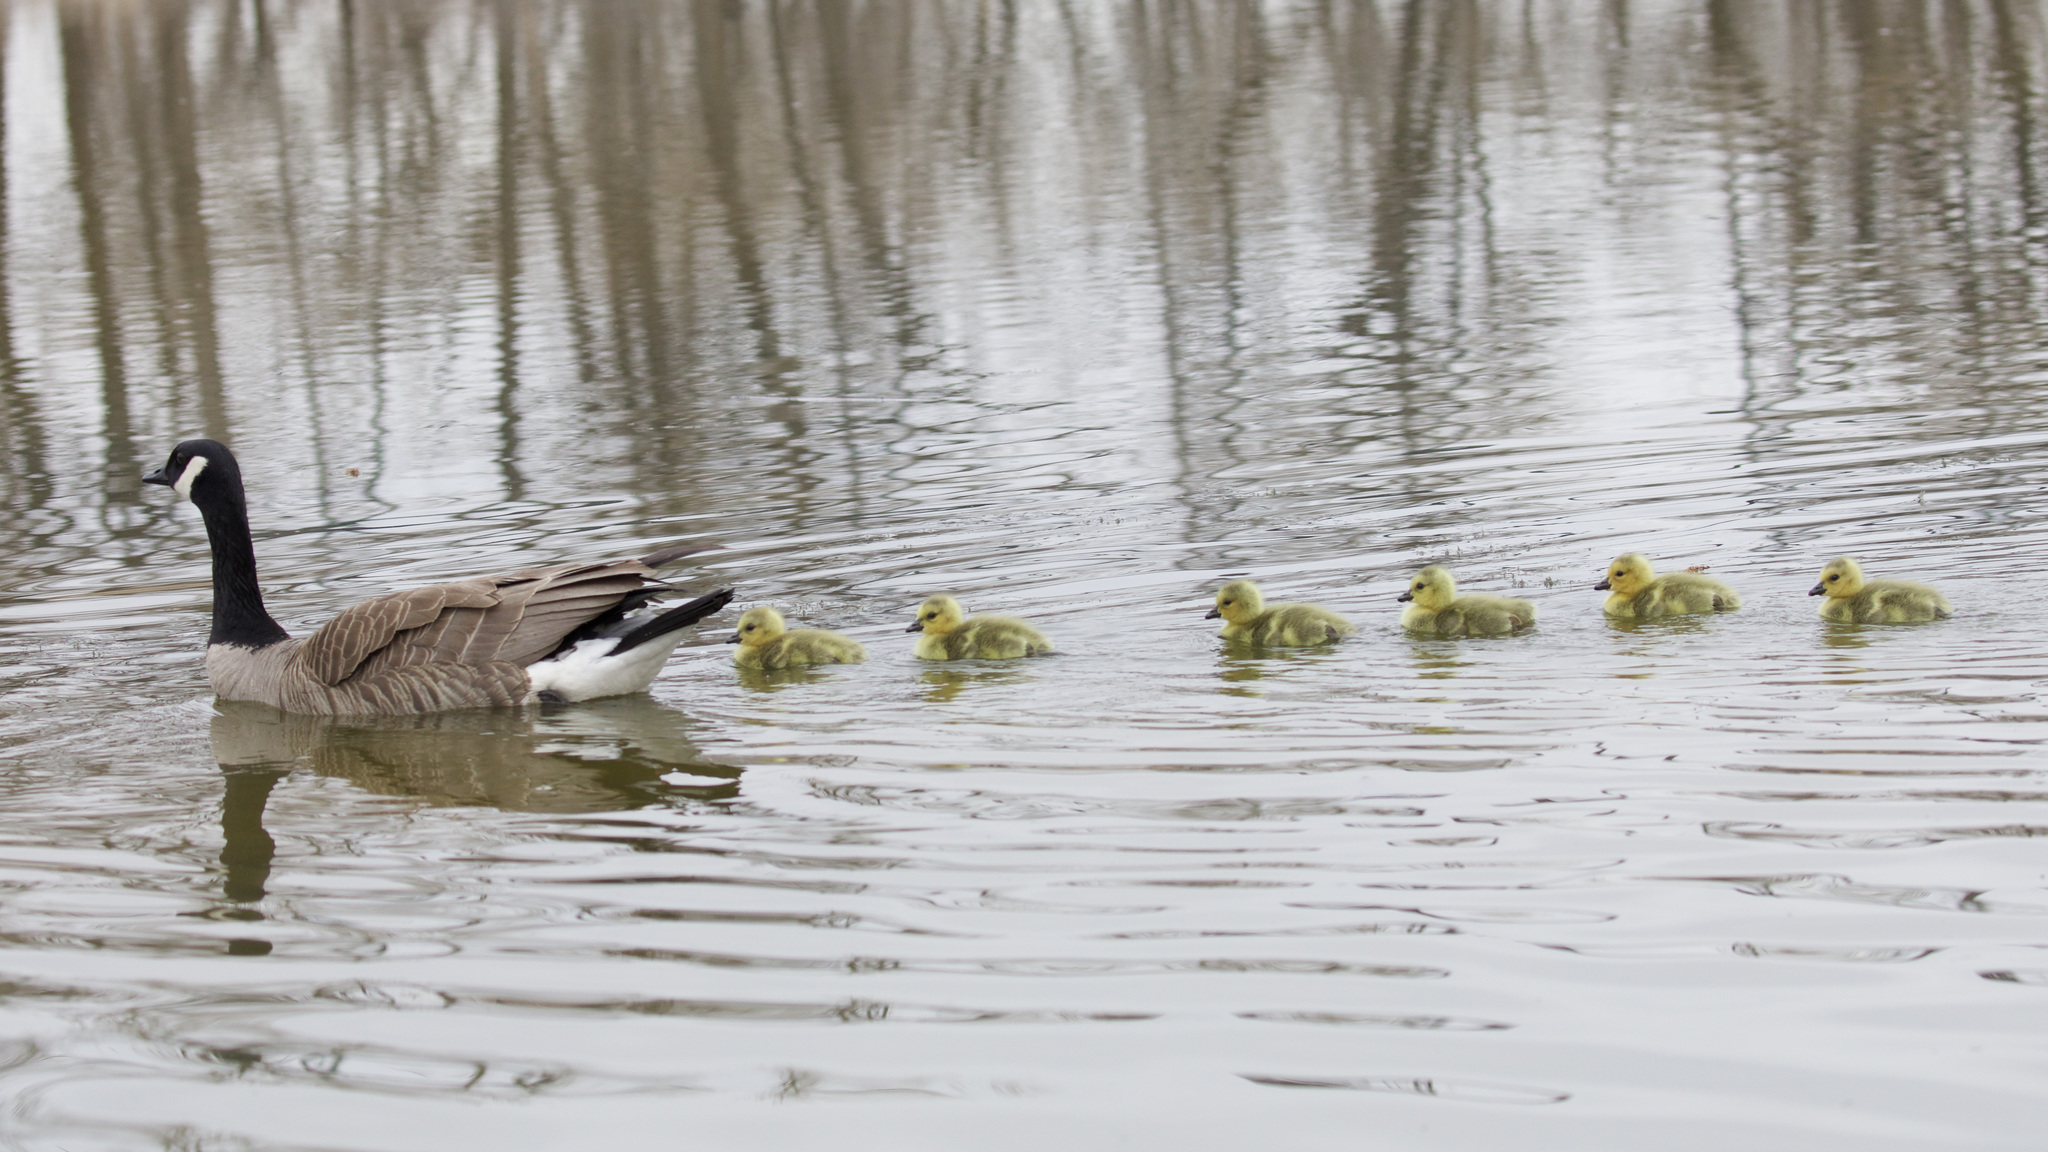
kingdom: Animalia
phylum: Chordata
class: Aves
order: Anseriformes
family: Anatidae
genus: Branta
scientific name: Branta canadensis
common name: Canada goose
